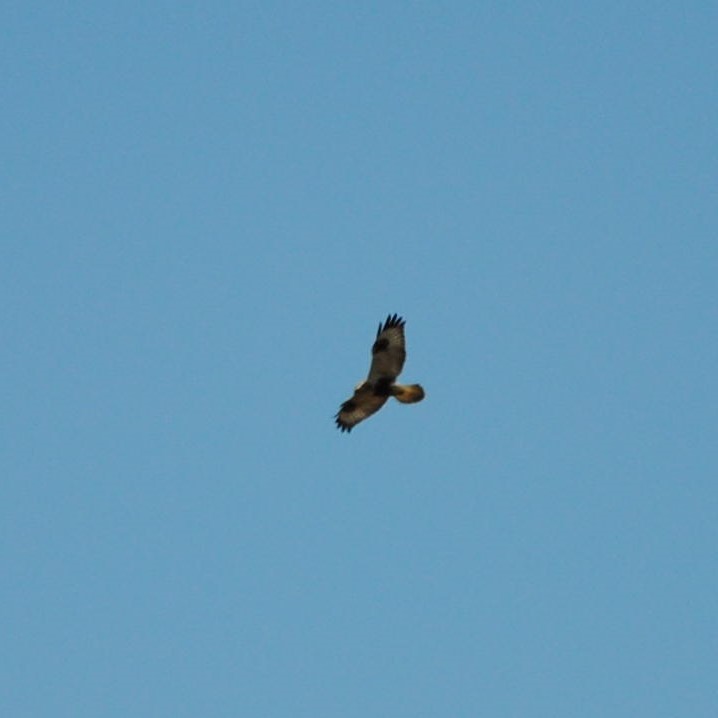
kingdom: Animalia
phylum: Chordata
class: Aves
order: Accipitriformes
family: Accipitridae
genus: Buteo
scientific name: Buteo lagopus
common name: Rough-legged buzzard
